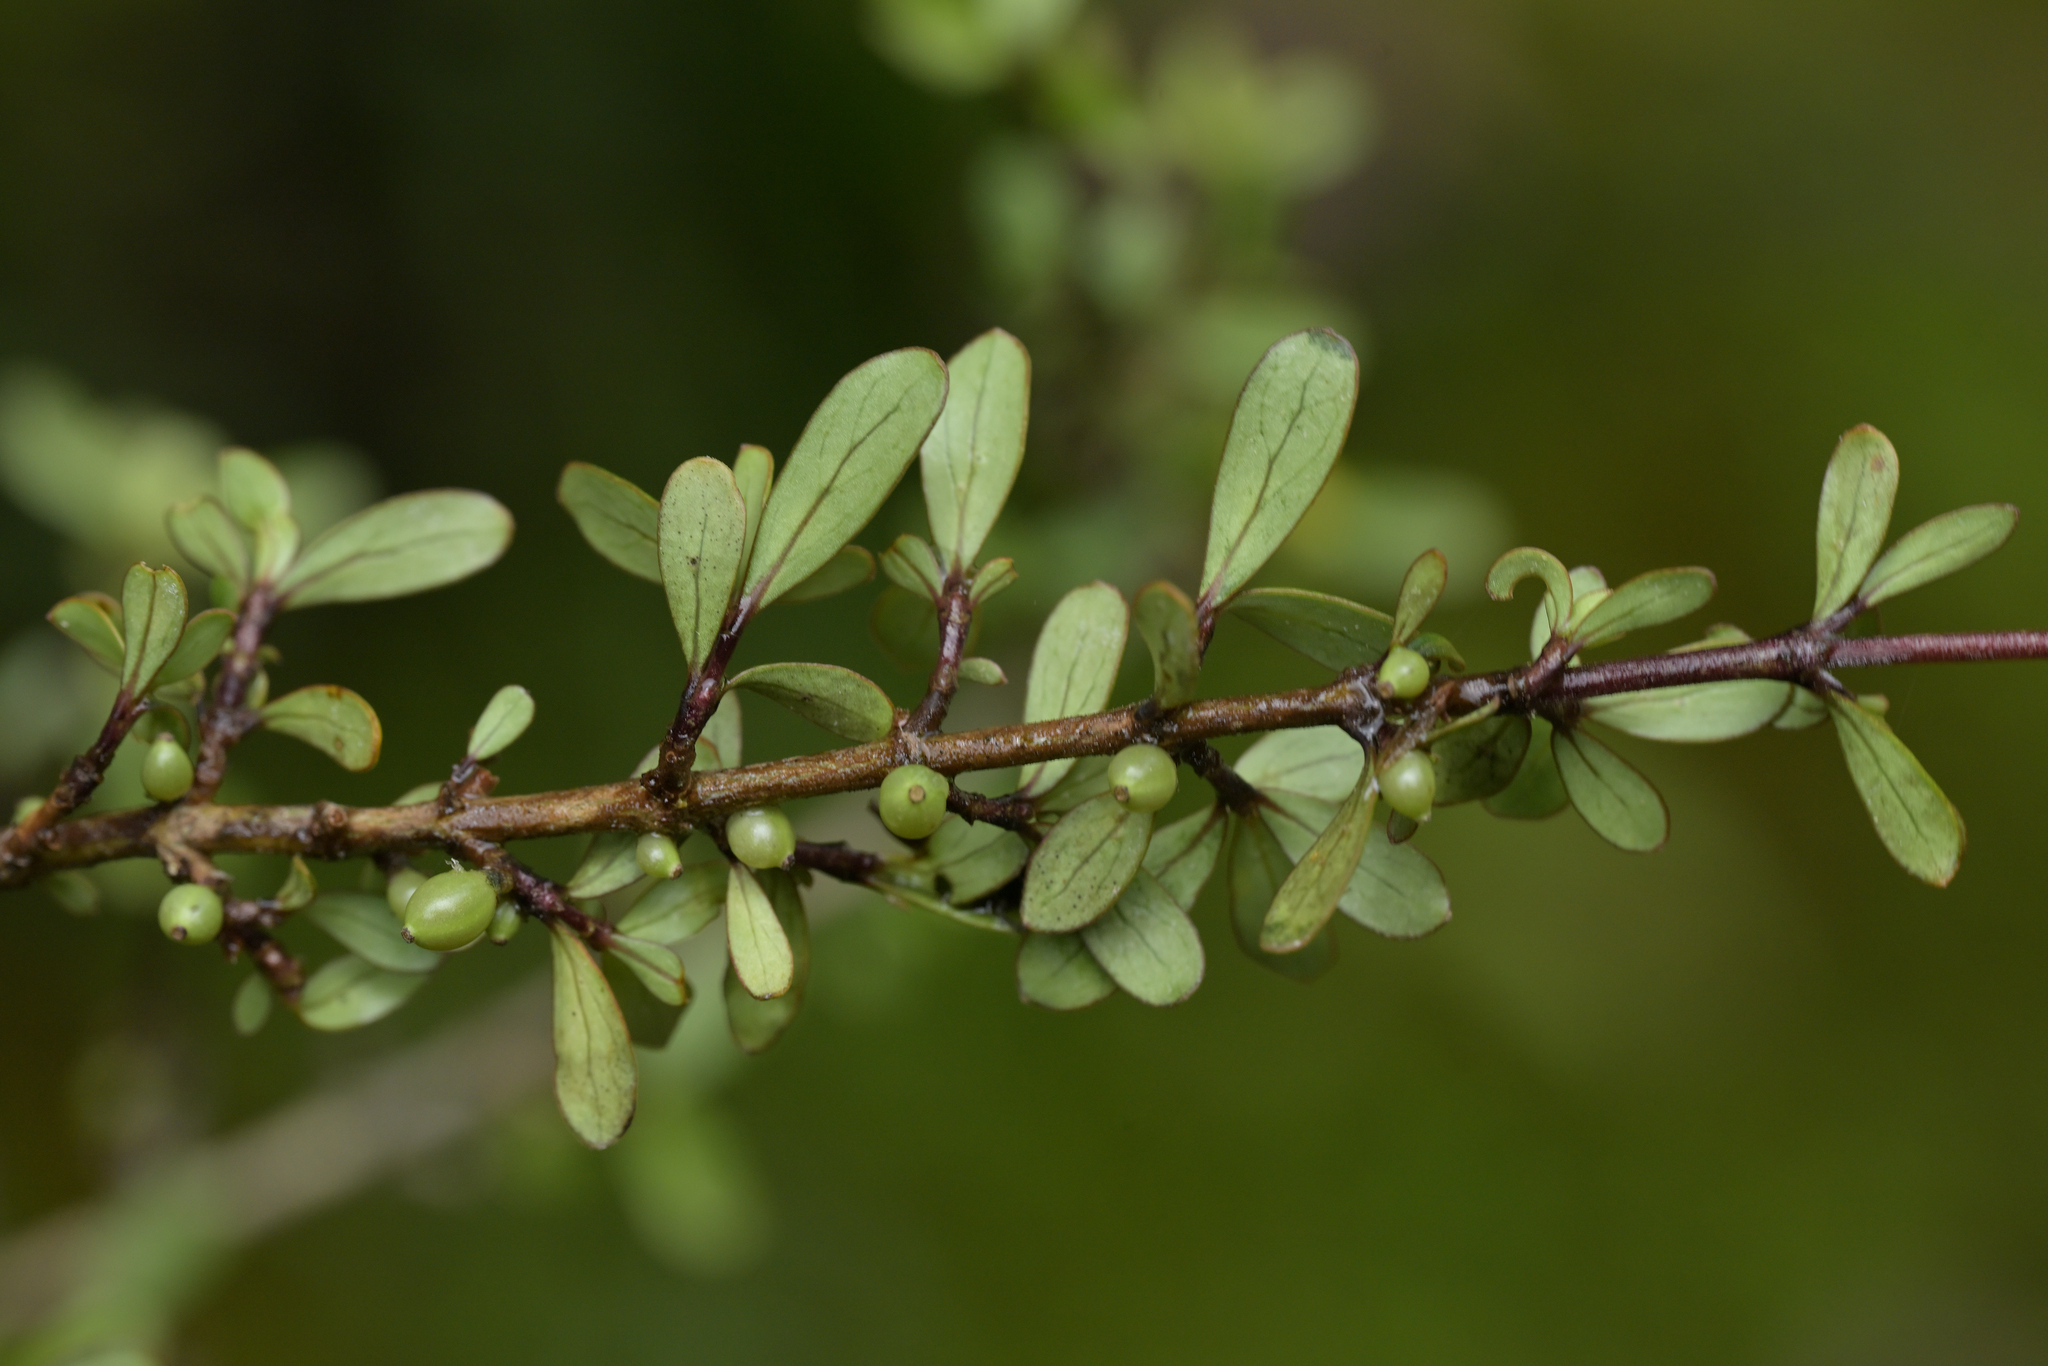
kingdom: Plantae
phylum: Tracheophyta
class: Magnoliopsida
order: Gentianales
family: Rubiaceae
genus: Coprosma
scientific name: Coprosma dumosa
